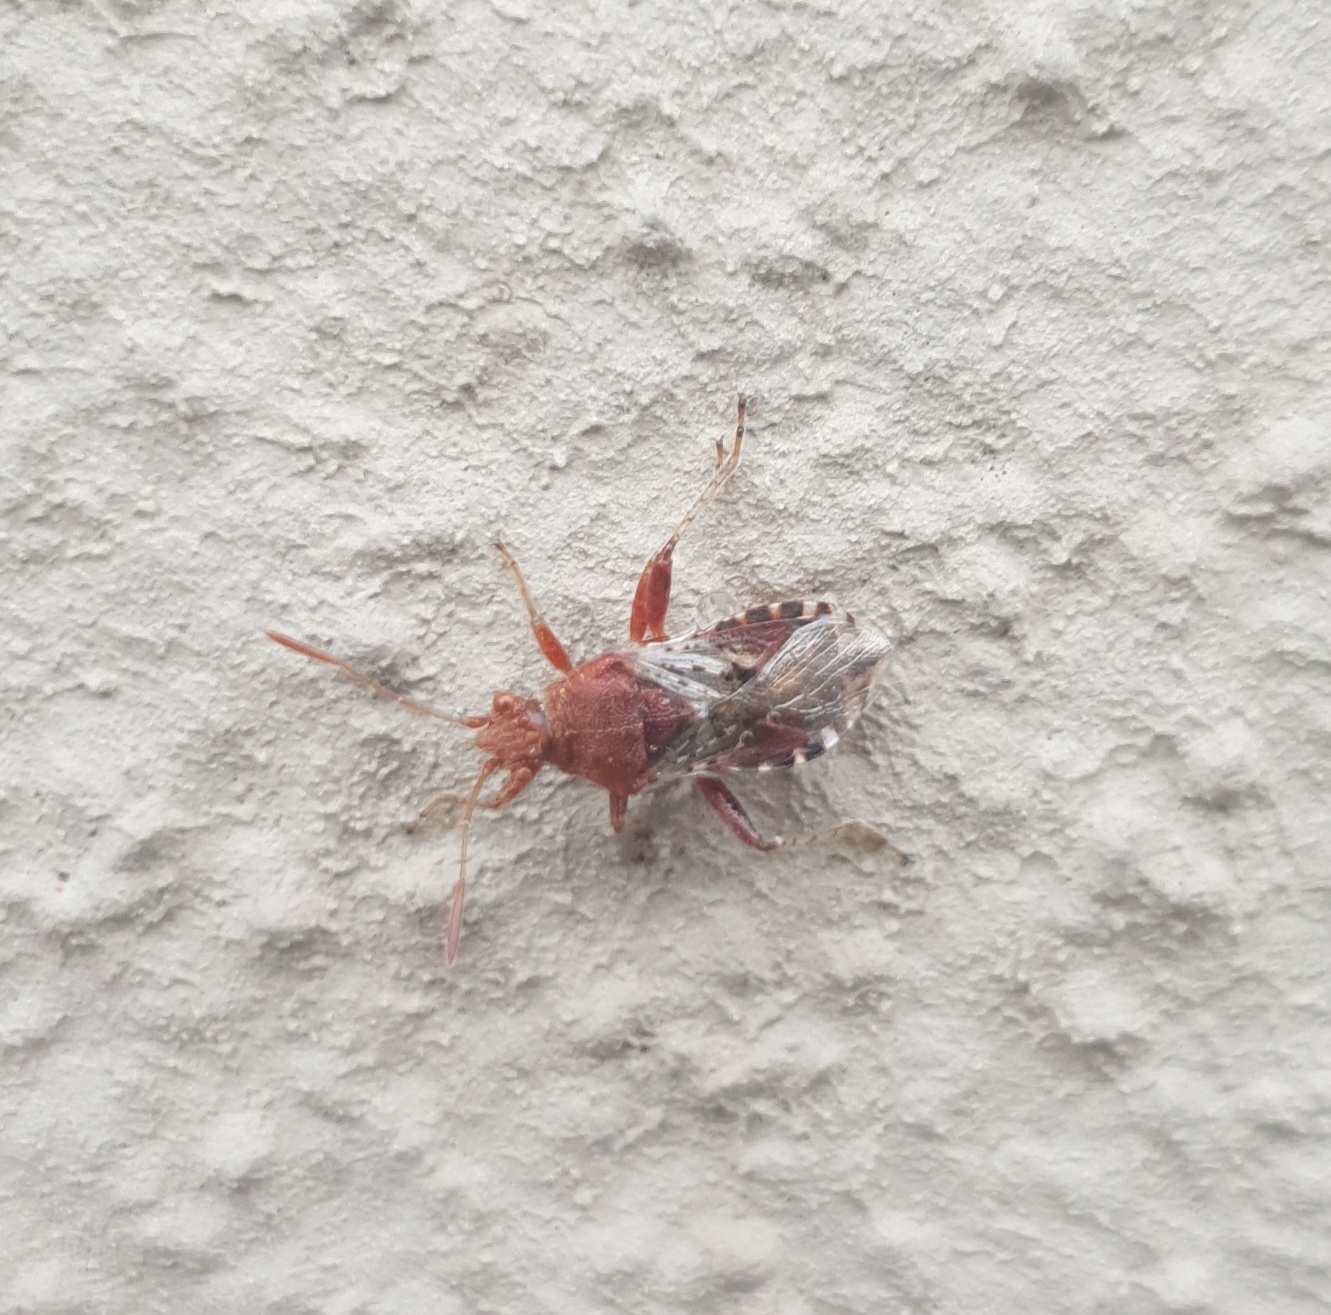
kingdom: Animalia
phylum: Arthropoda
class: Insecta
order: Hemiptera
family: Rhopalidae
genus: Rhopalus
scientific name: Rhopalus subrufus
